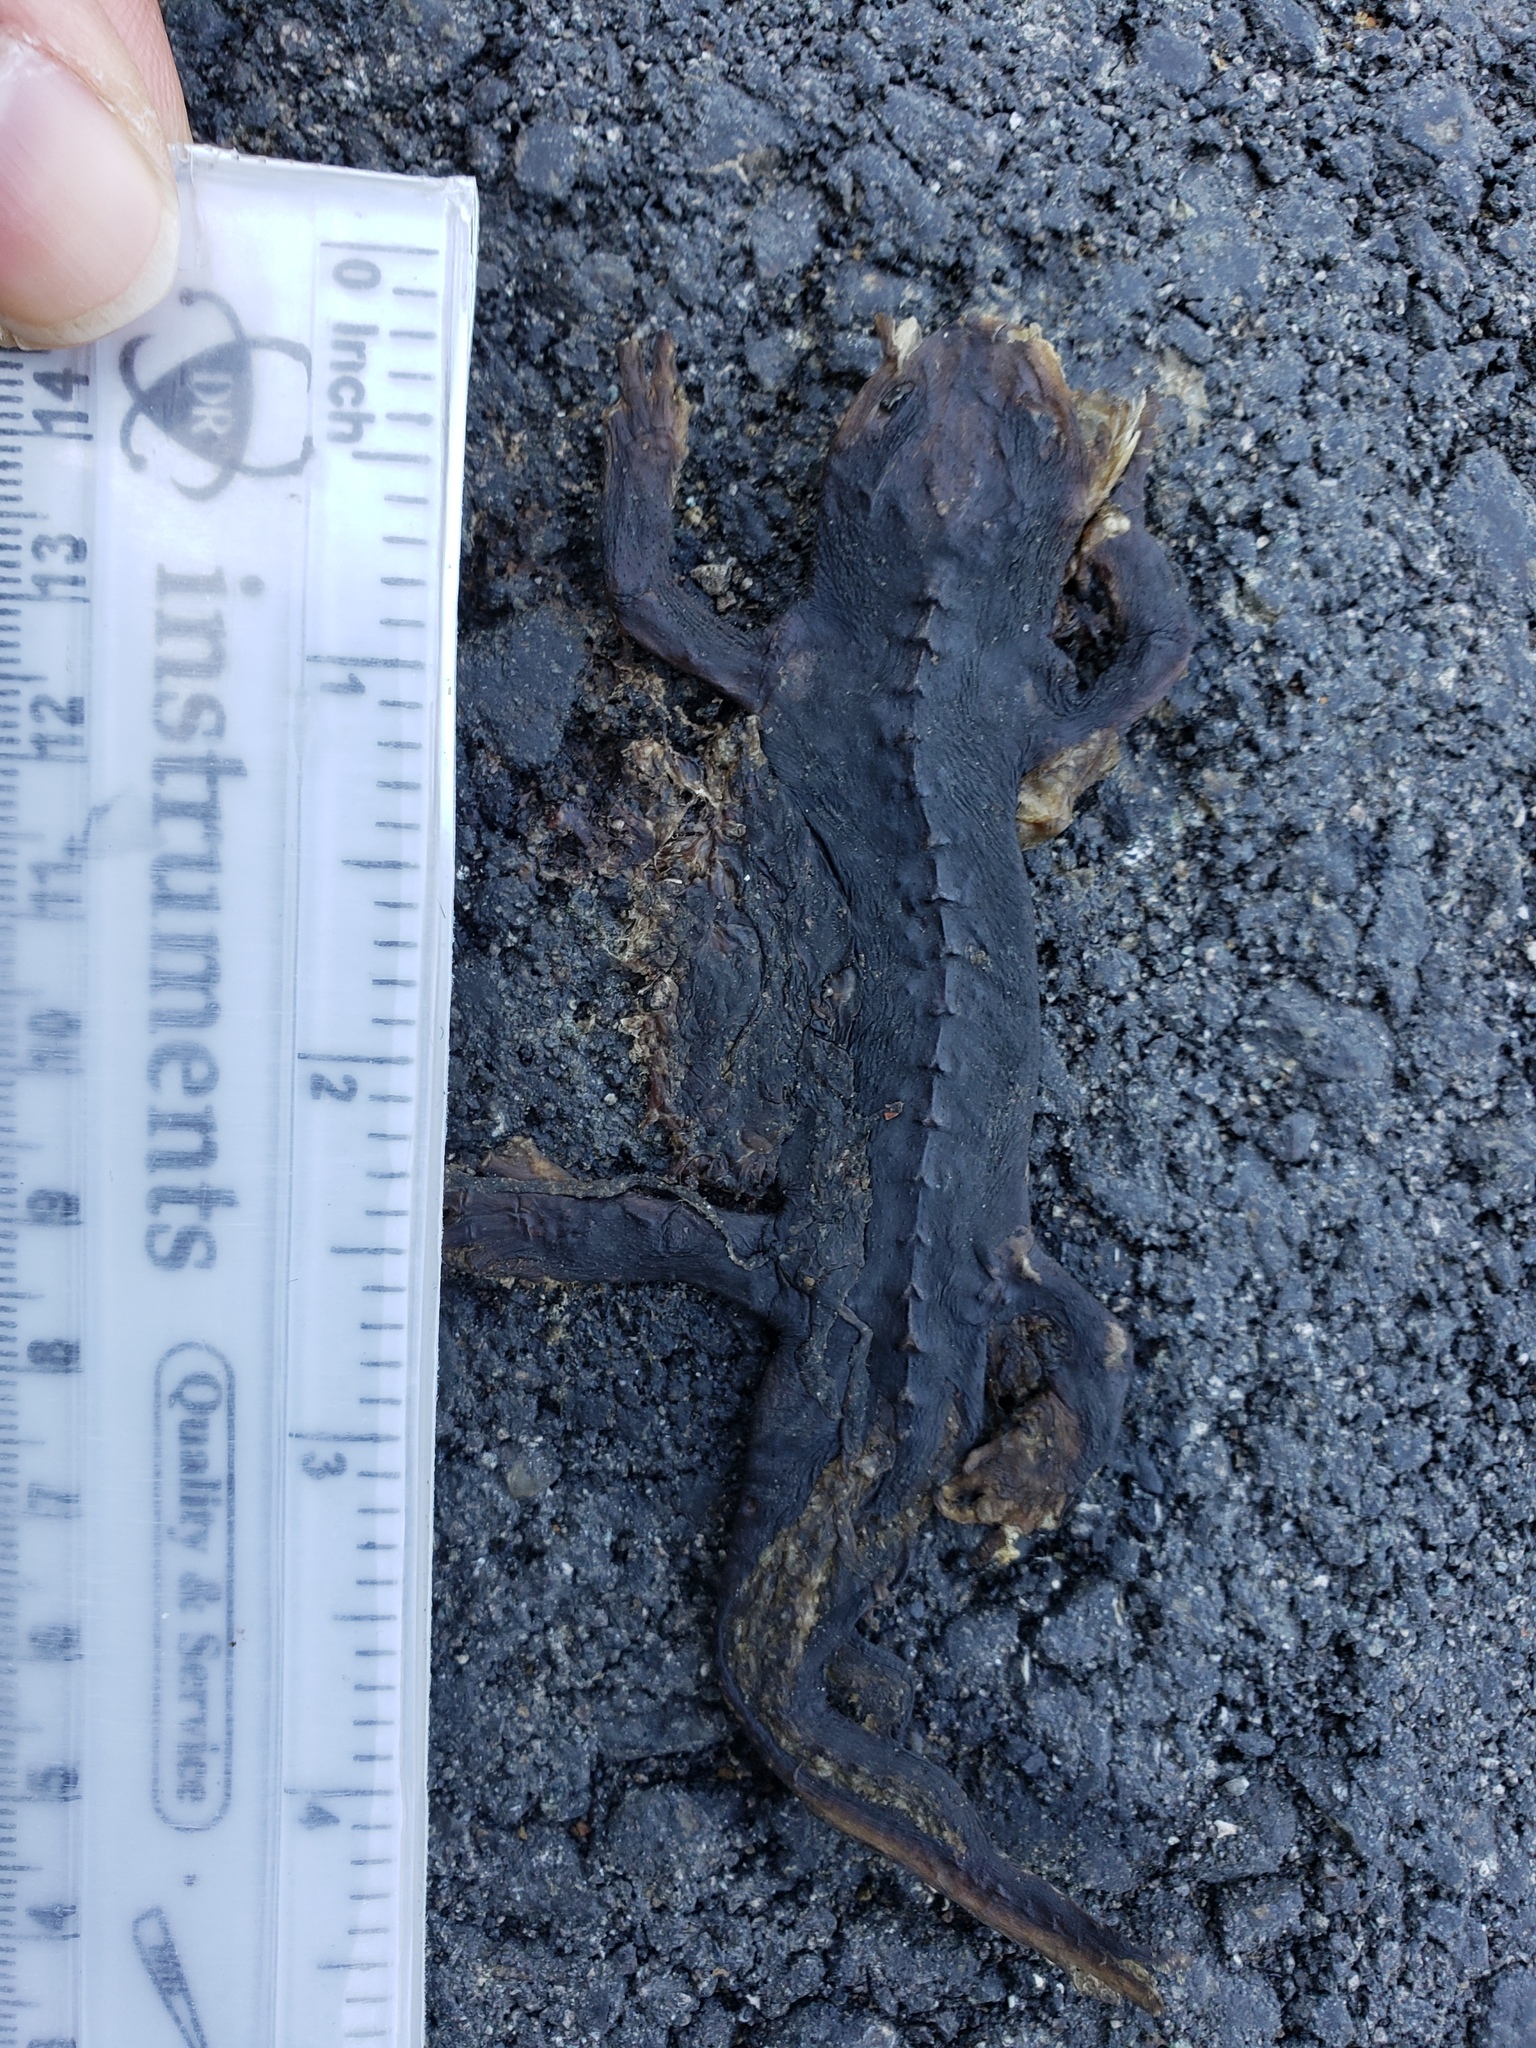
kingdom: Animalia
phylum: Chordata
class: Amphibia
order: Caudata
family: Salamandridae
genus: Taricha
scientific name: Taricha
